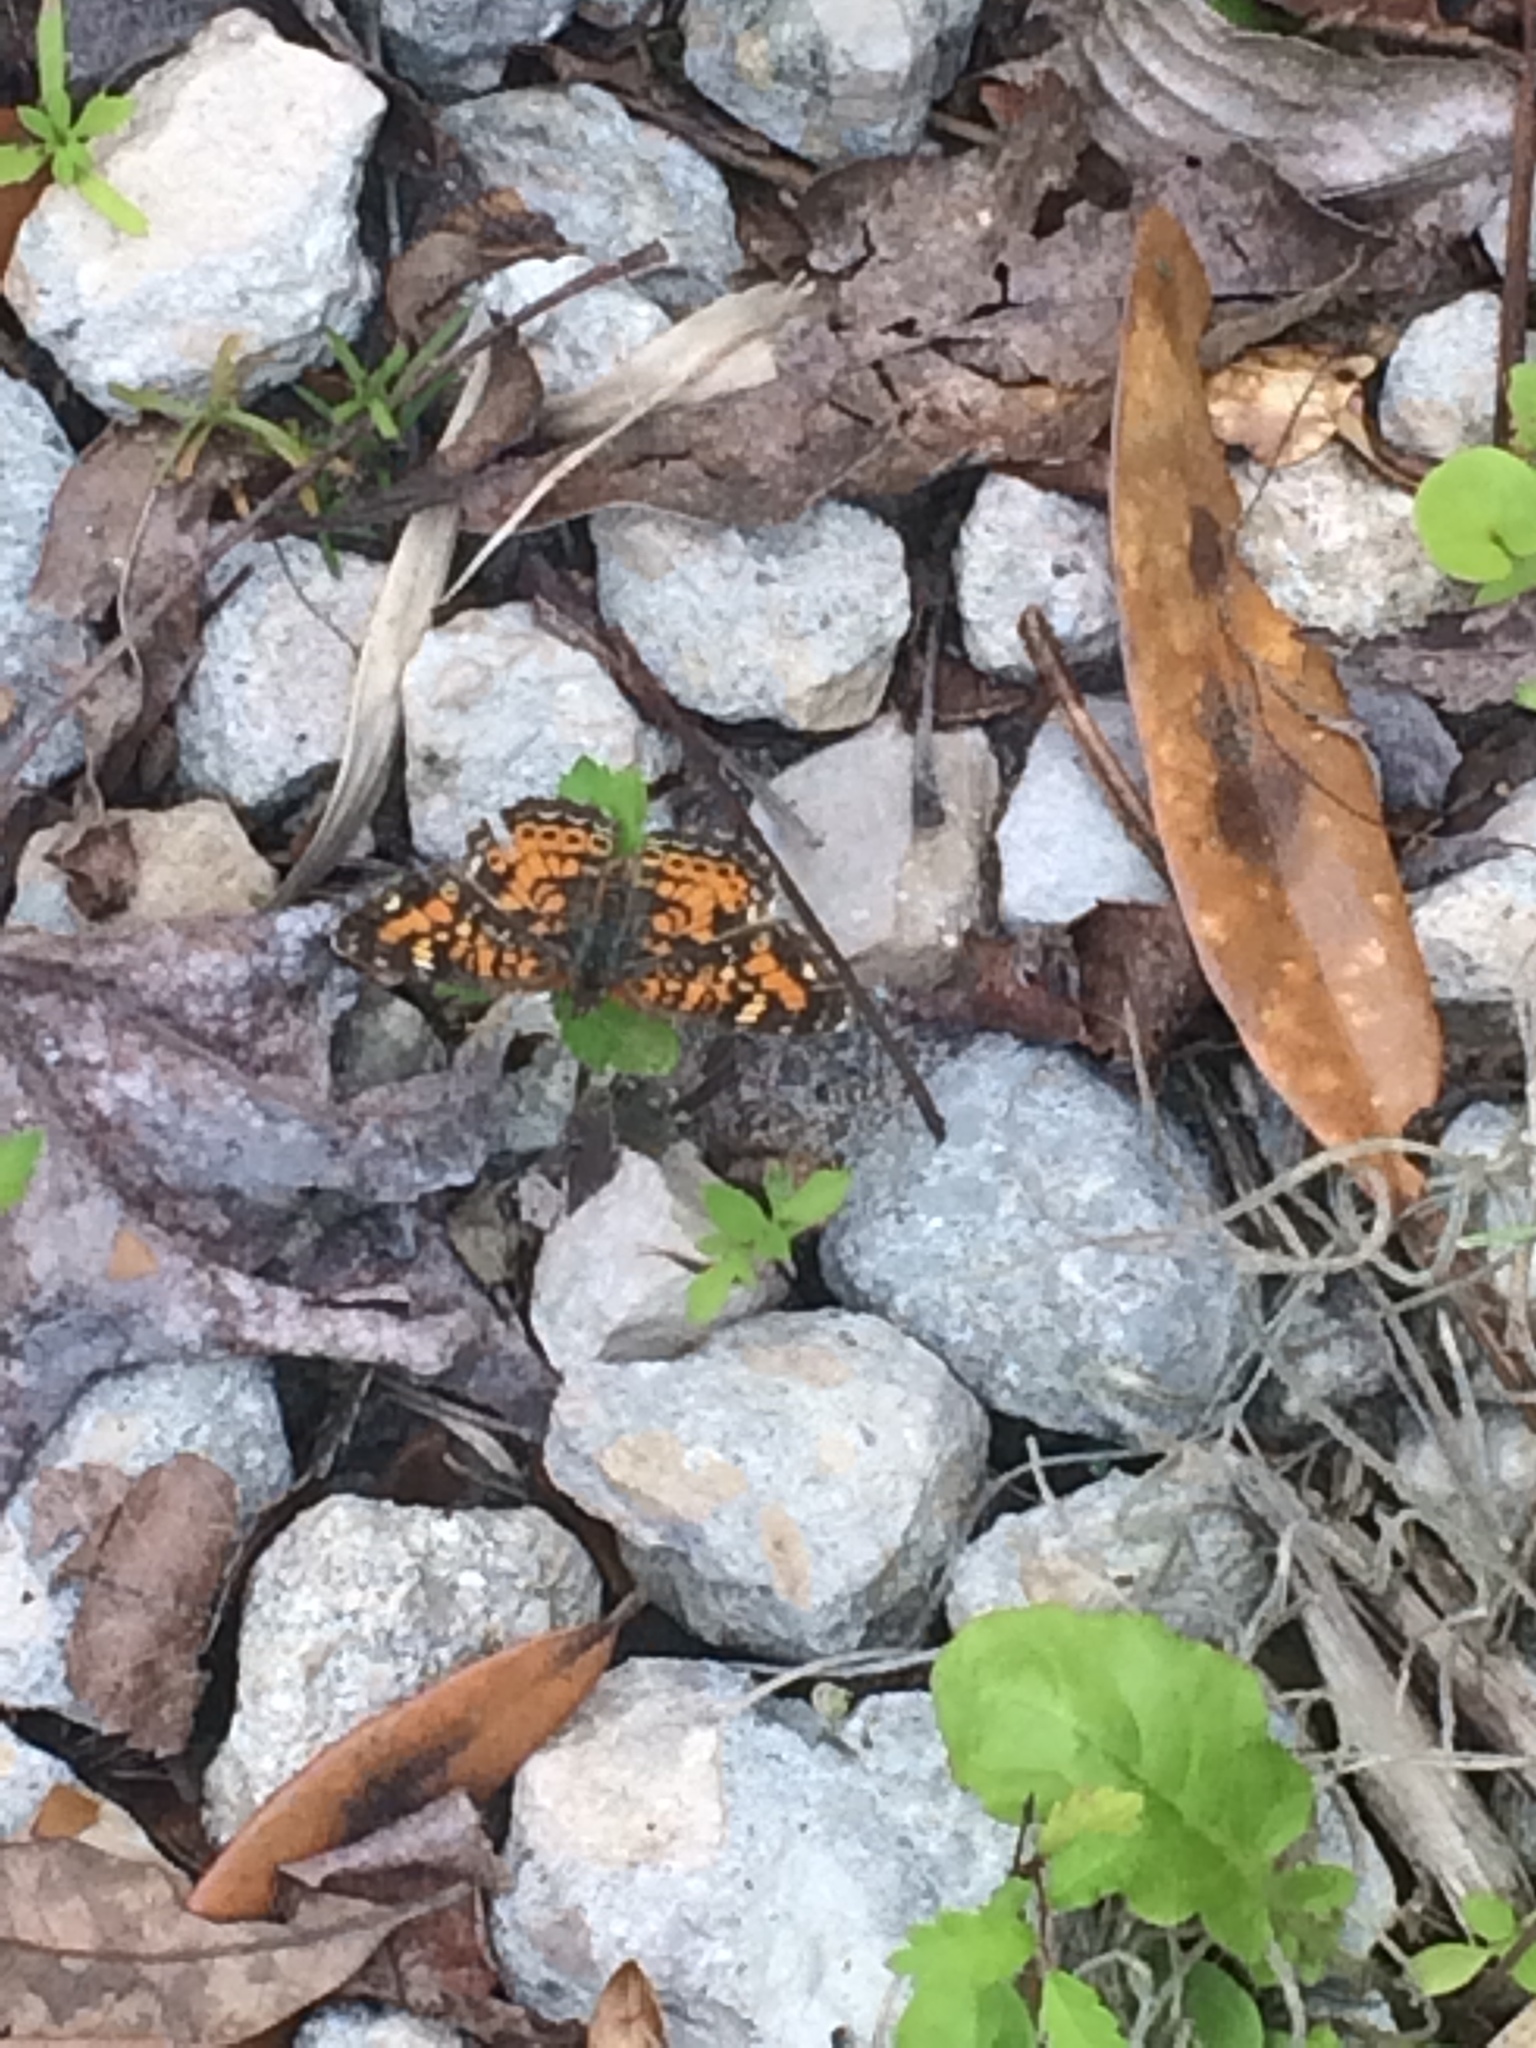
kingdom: Animalia
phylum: Arthropoda
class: Insecta
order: Lepidoptera
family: Nymphalidae
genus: Phyciodes
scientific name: Phyciodes phaon
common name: Phaon crescent
